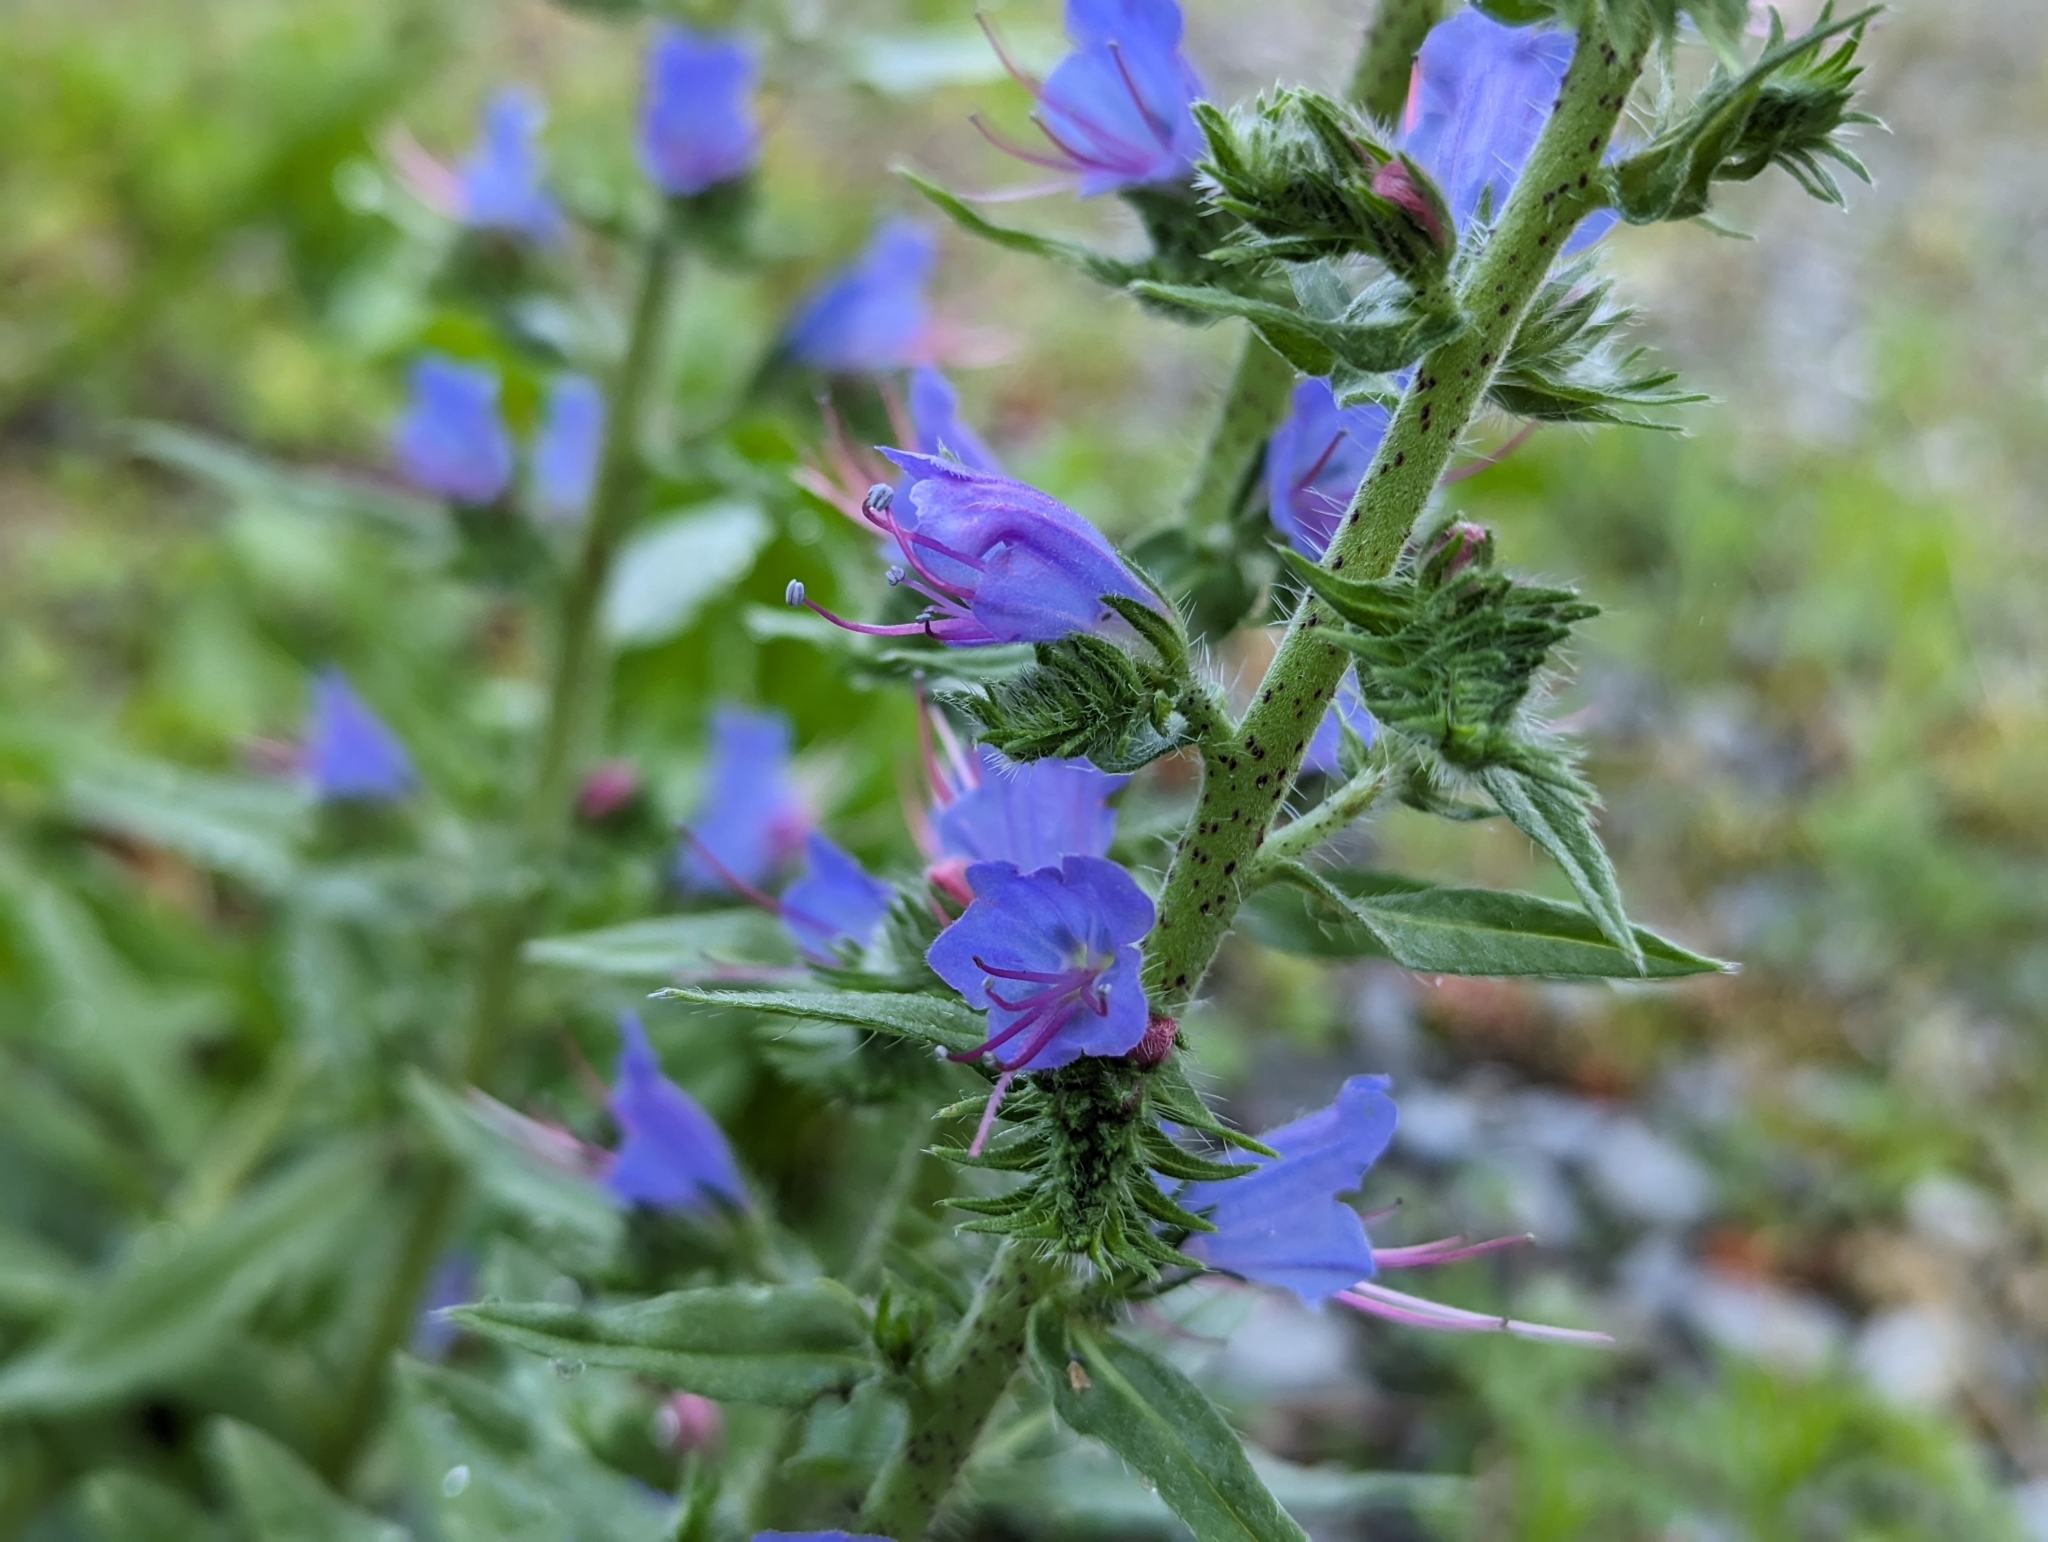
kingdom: Plantae
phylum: Tracheophyta
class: Magnoliopsida
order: Boraginales
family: Boraginaceae
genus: Echium
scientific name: Echium vulgare
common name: Common viper's bugloss
